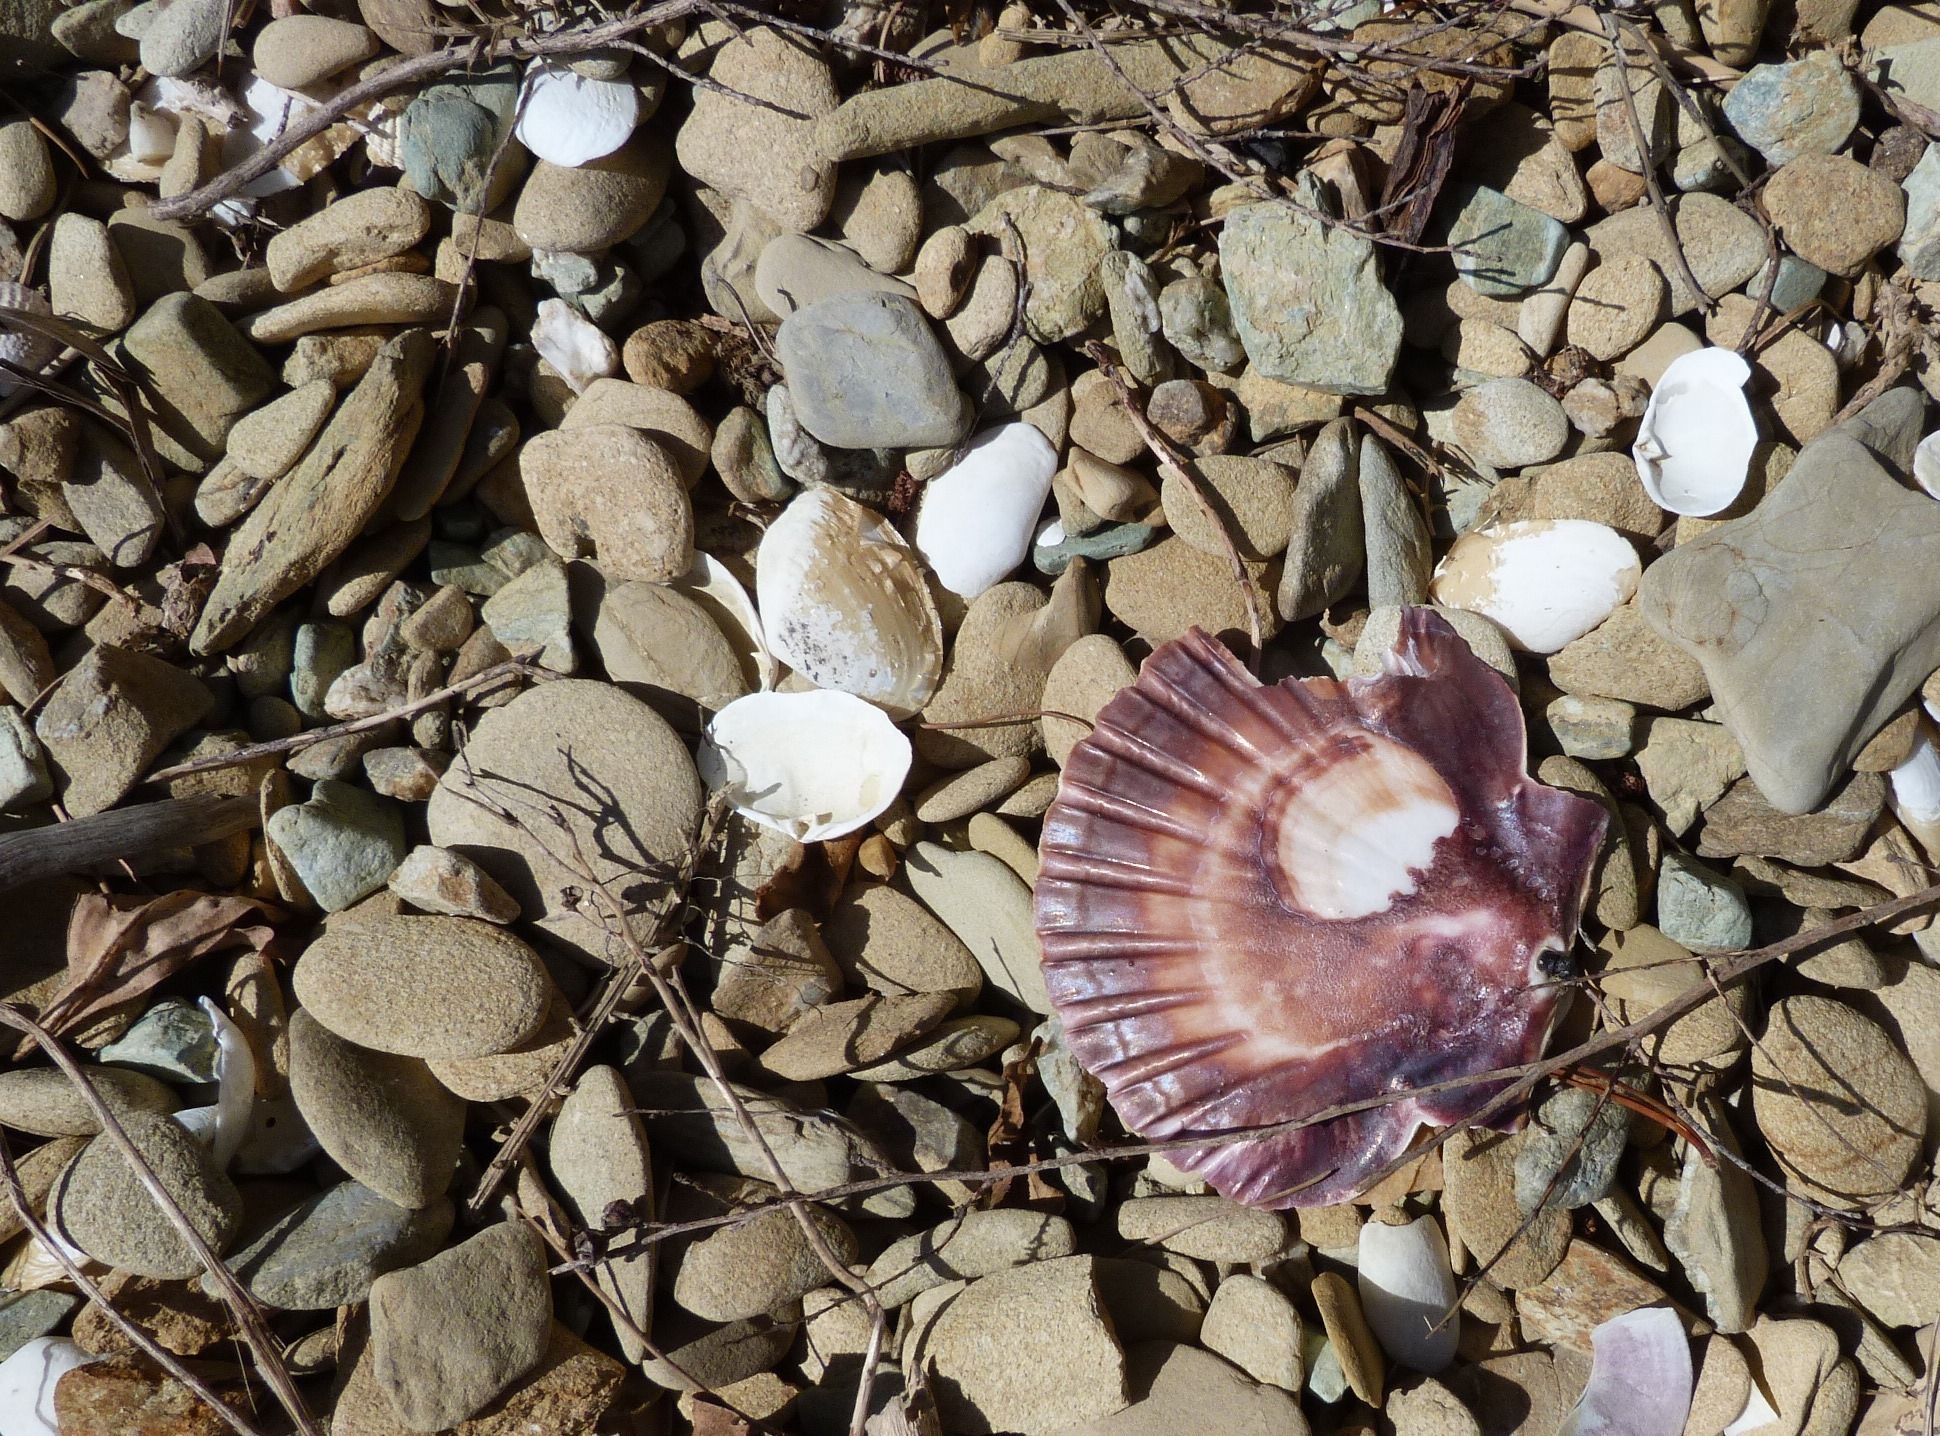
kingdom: Animalia
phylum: Mollusca
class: Bivalvia
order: Pectinida
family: Pectinidae
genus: Pecten
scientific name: Pecten novaezelandiae
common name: New zealand scallop
